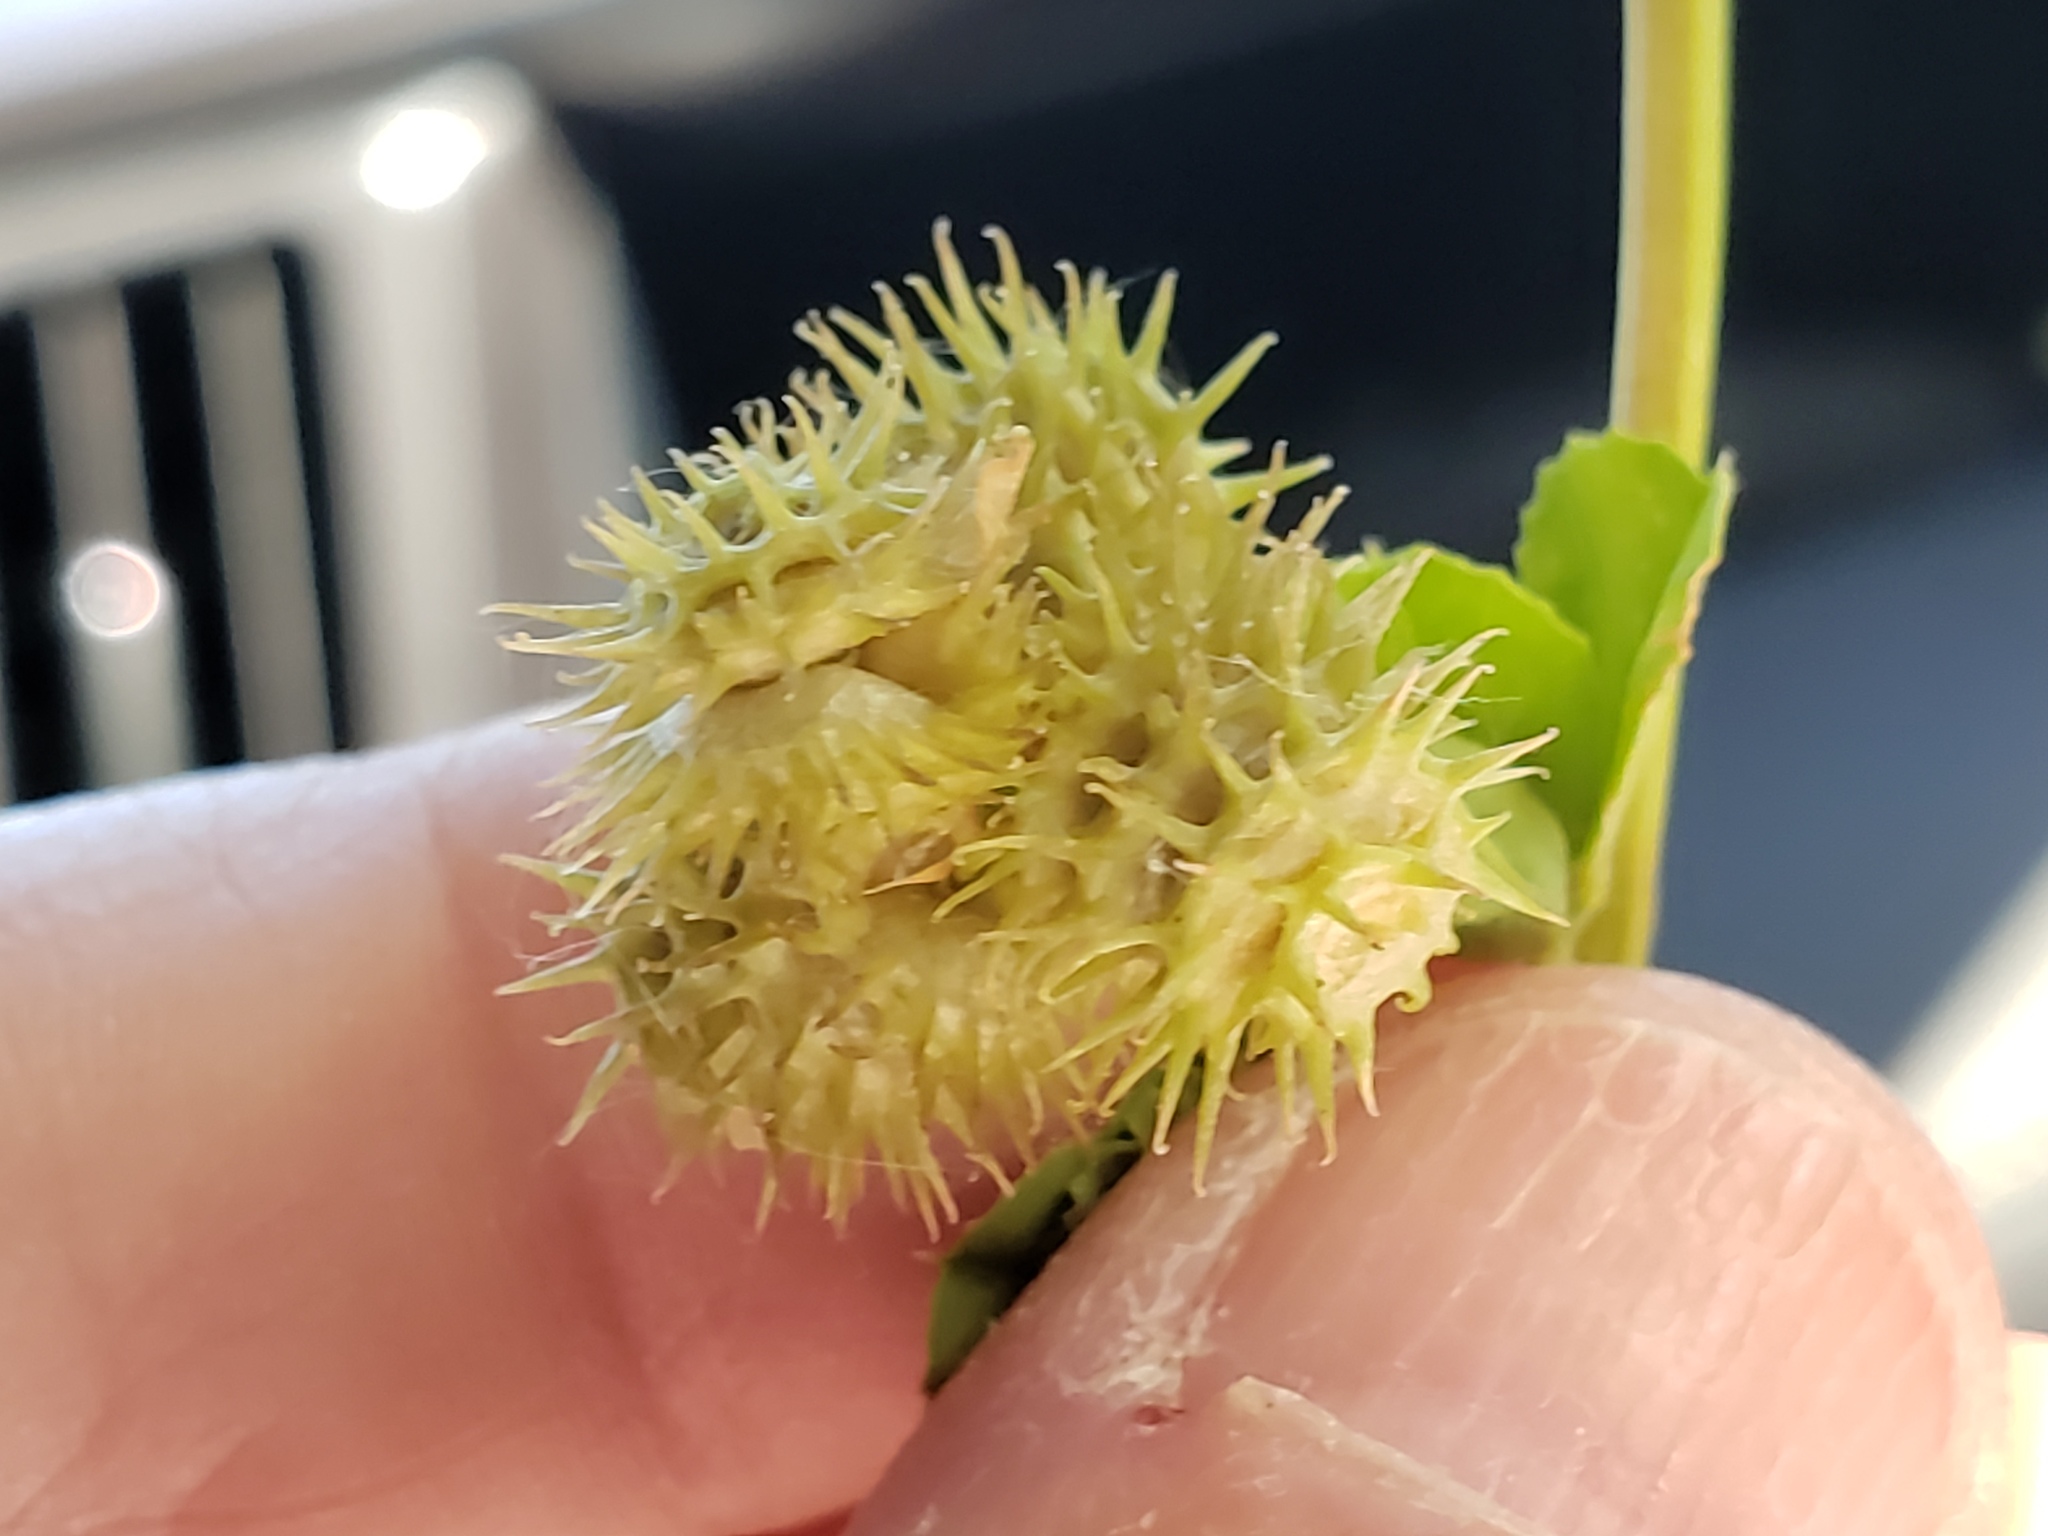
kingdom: Plantae
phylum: Tracheophyta
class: Magnoliopsida
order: Fabales
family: Fabaceae
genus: Medicago
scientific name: Medicago polymorpha
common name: Burclover
